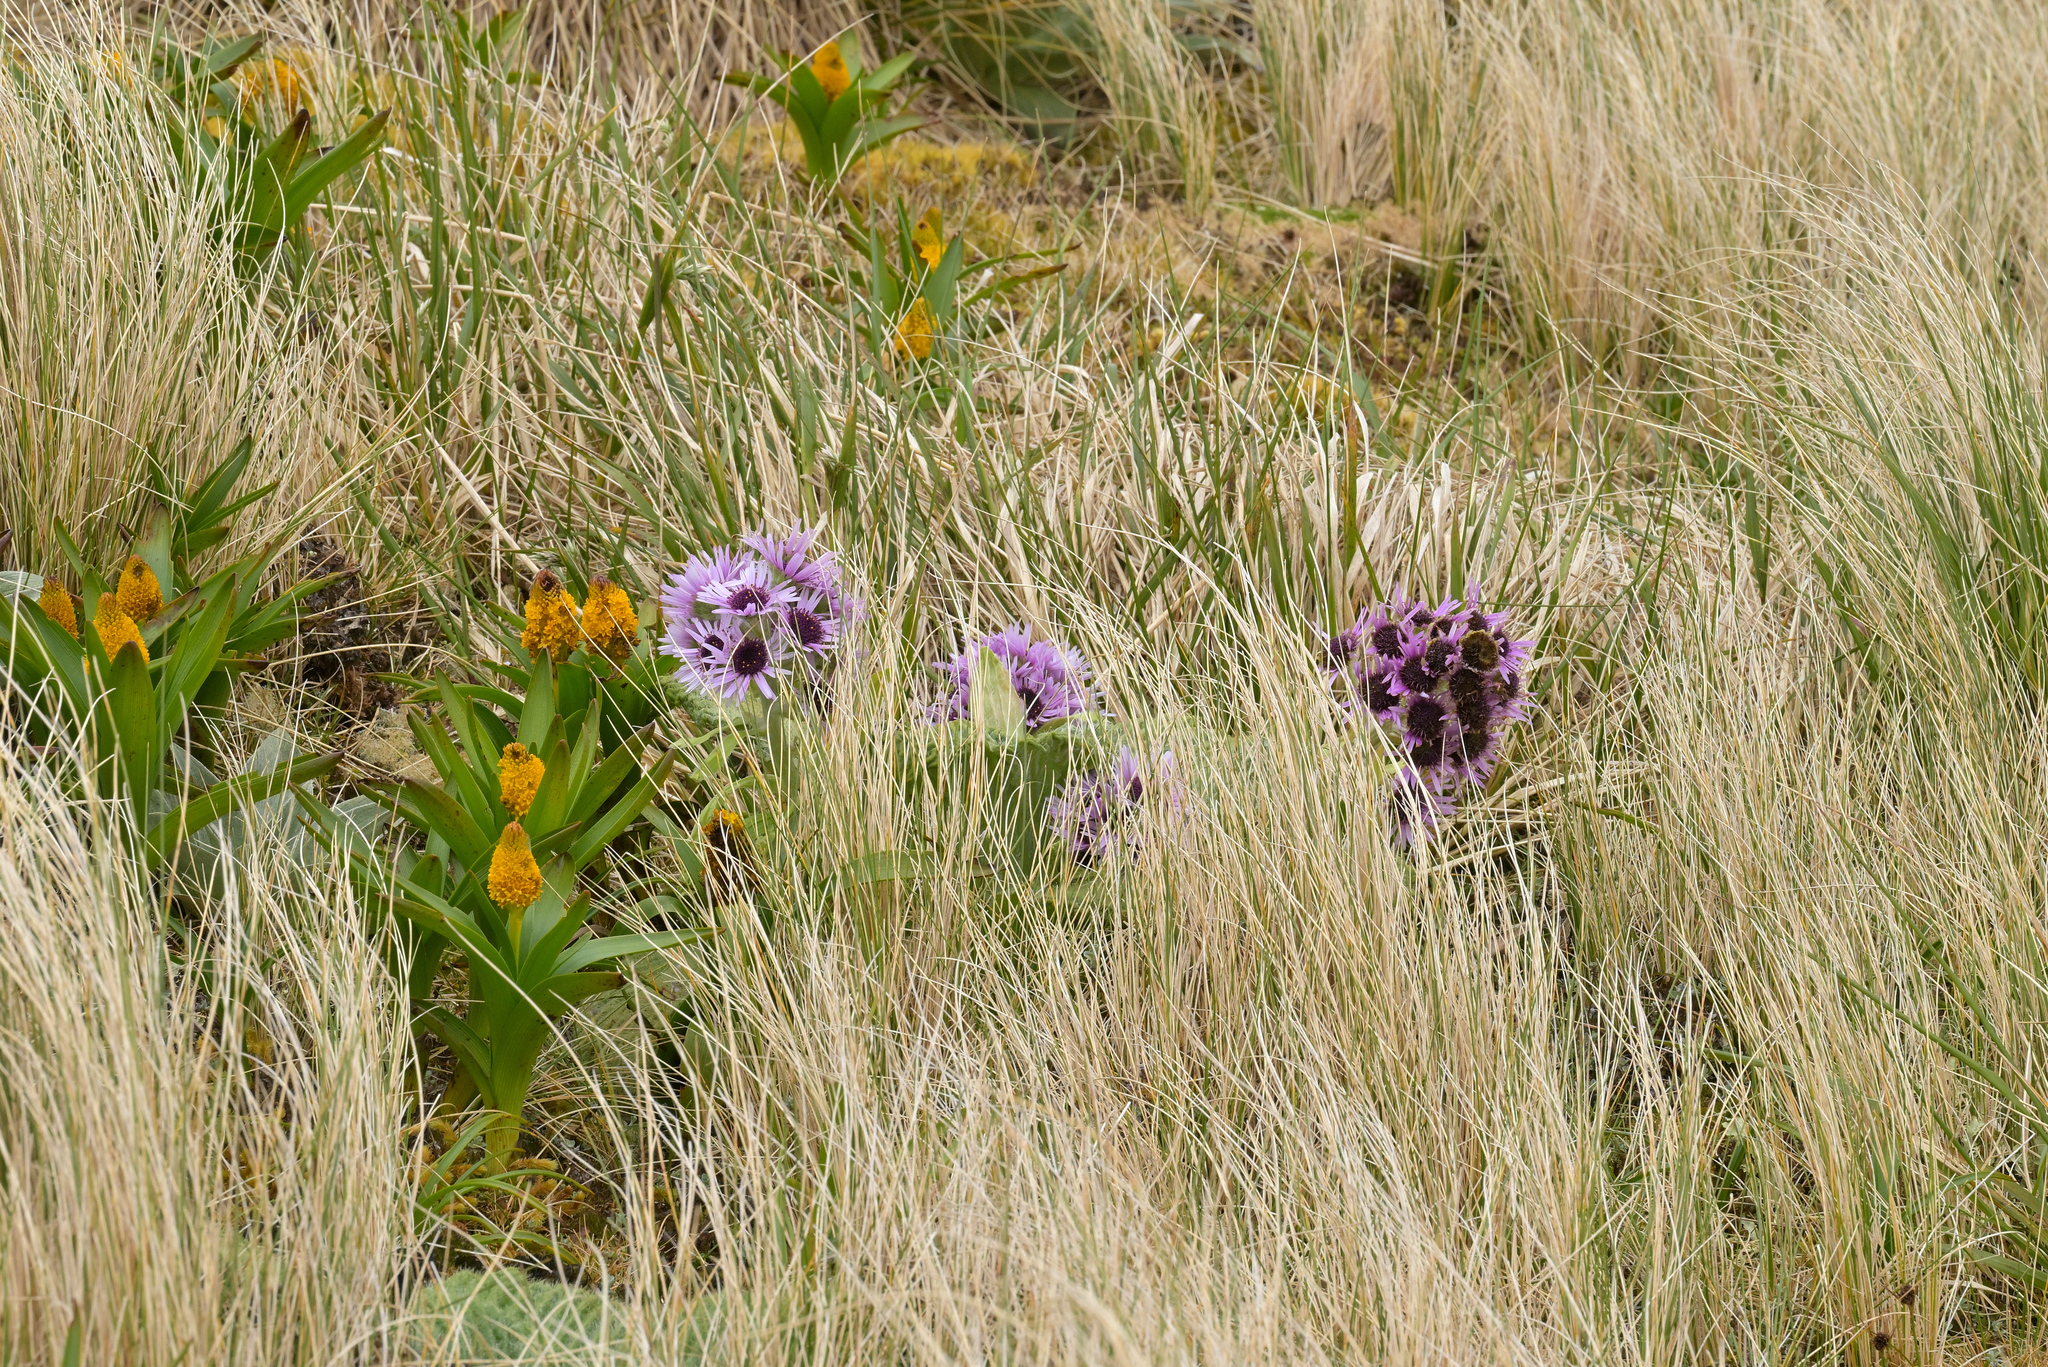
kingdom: Plantae
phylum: Tracheophyta
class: Magnoliopsida
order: Asterales
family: Asteraceae
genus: Pleurophyllum
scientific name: Pleurophyllum speciosum
